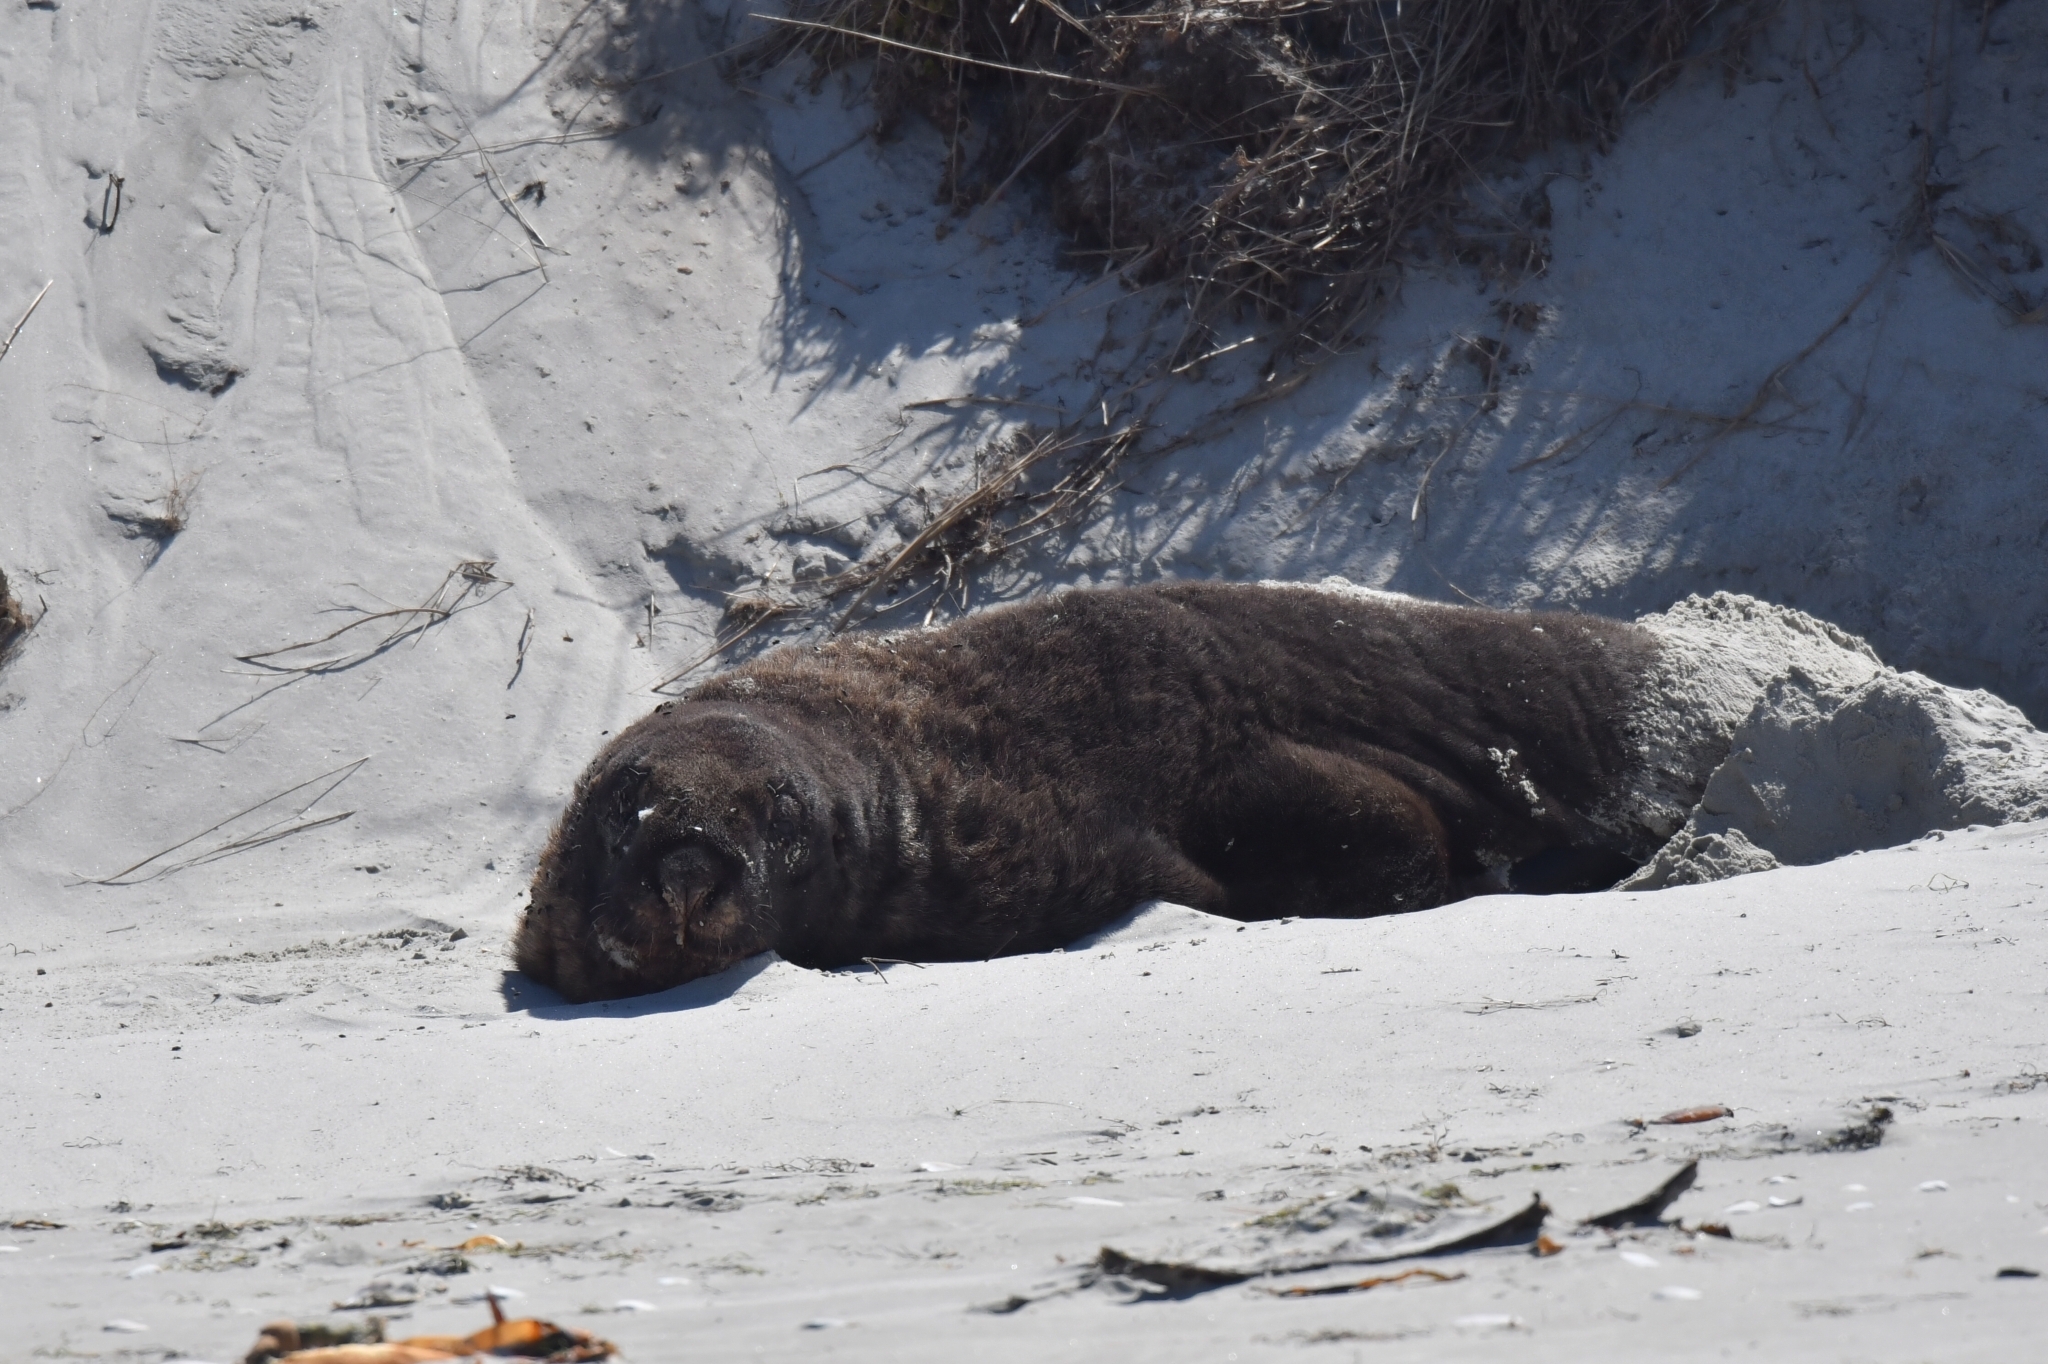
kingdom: Animalia
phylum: Chordata
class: Mammalia
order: Carnivora
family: Otariidae
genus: Phocarctos
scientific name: Phocarctos hookeri
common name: New zealand sea lion
